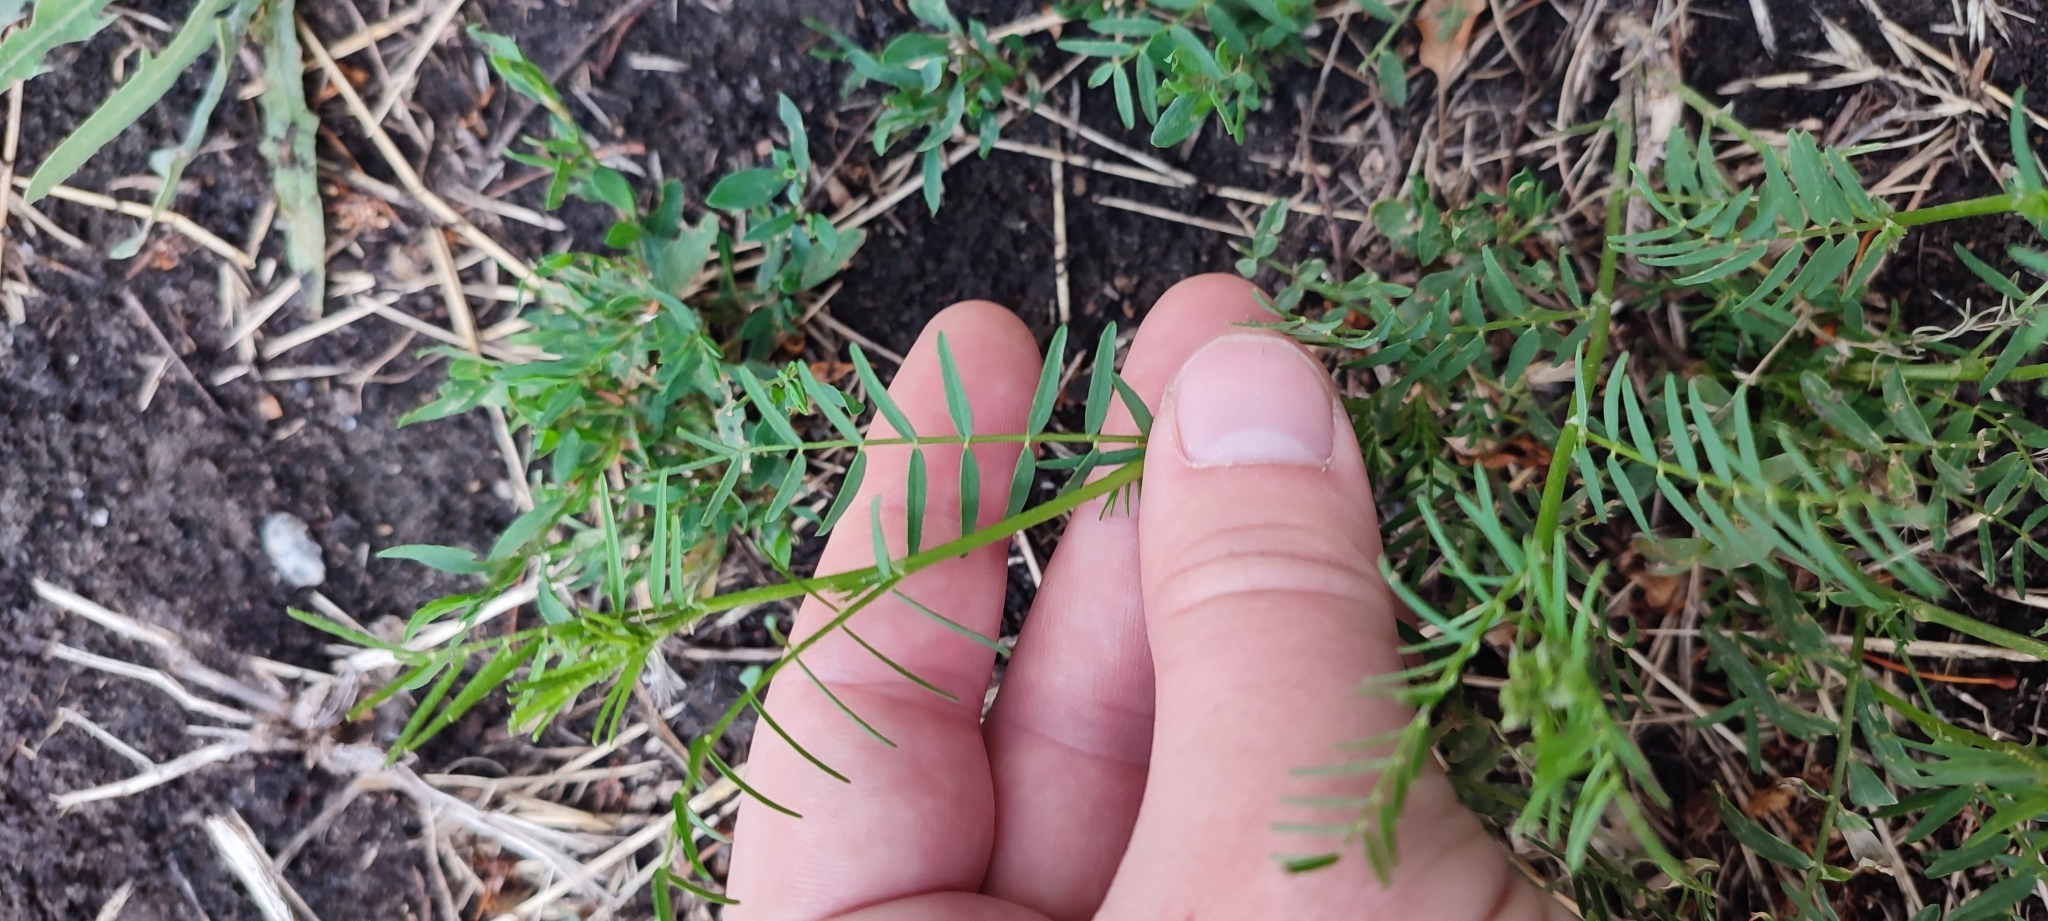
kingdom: Plantae
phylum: Tracheophyta
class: Magnoliopsida
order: Fabales
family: Fabaceae
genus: Astragalus
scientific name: Astragalus sulcatus
